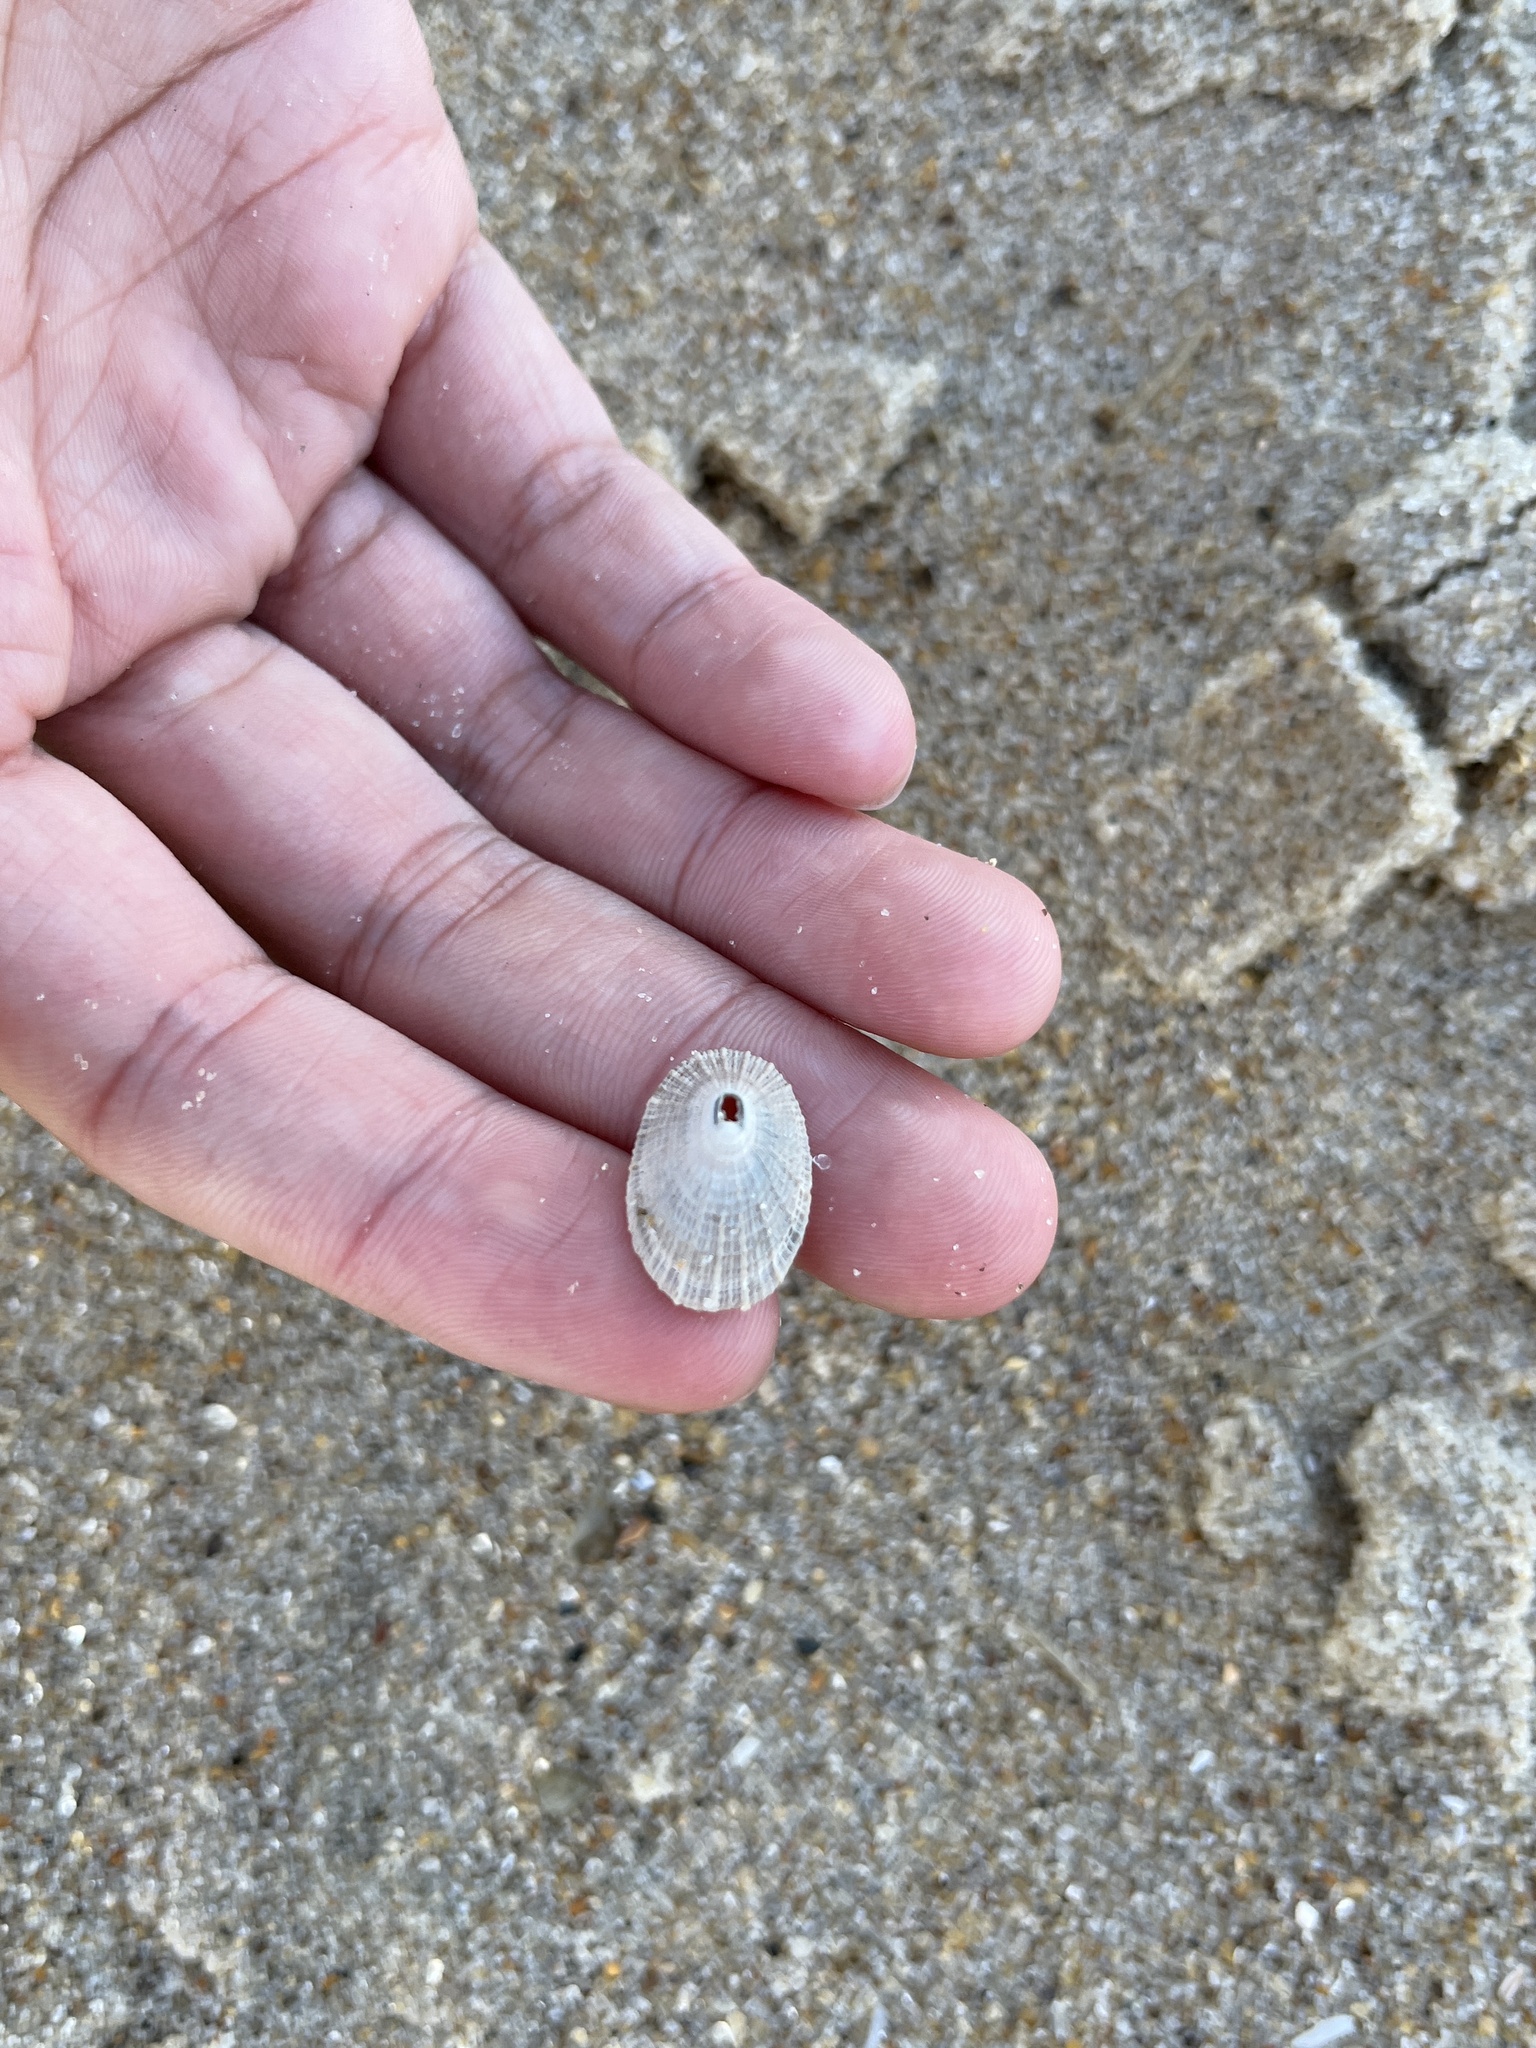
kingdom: Animalia
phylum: Mollusca
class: Gastropoda
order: Lepetellida
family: Fissurellidae
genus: Diodora
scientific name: Diodora cayenensis
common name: Cayenne keyhole limpet
